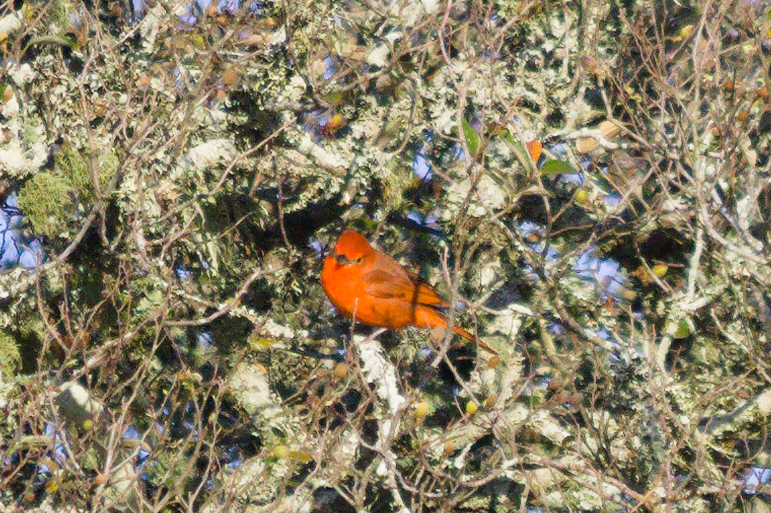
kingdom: Animalia
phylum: Chordata
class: Aves
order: Passeriformes
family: Cardinalidae
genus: Piranga
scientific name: Piranga flava
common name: Red tanager
